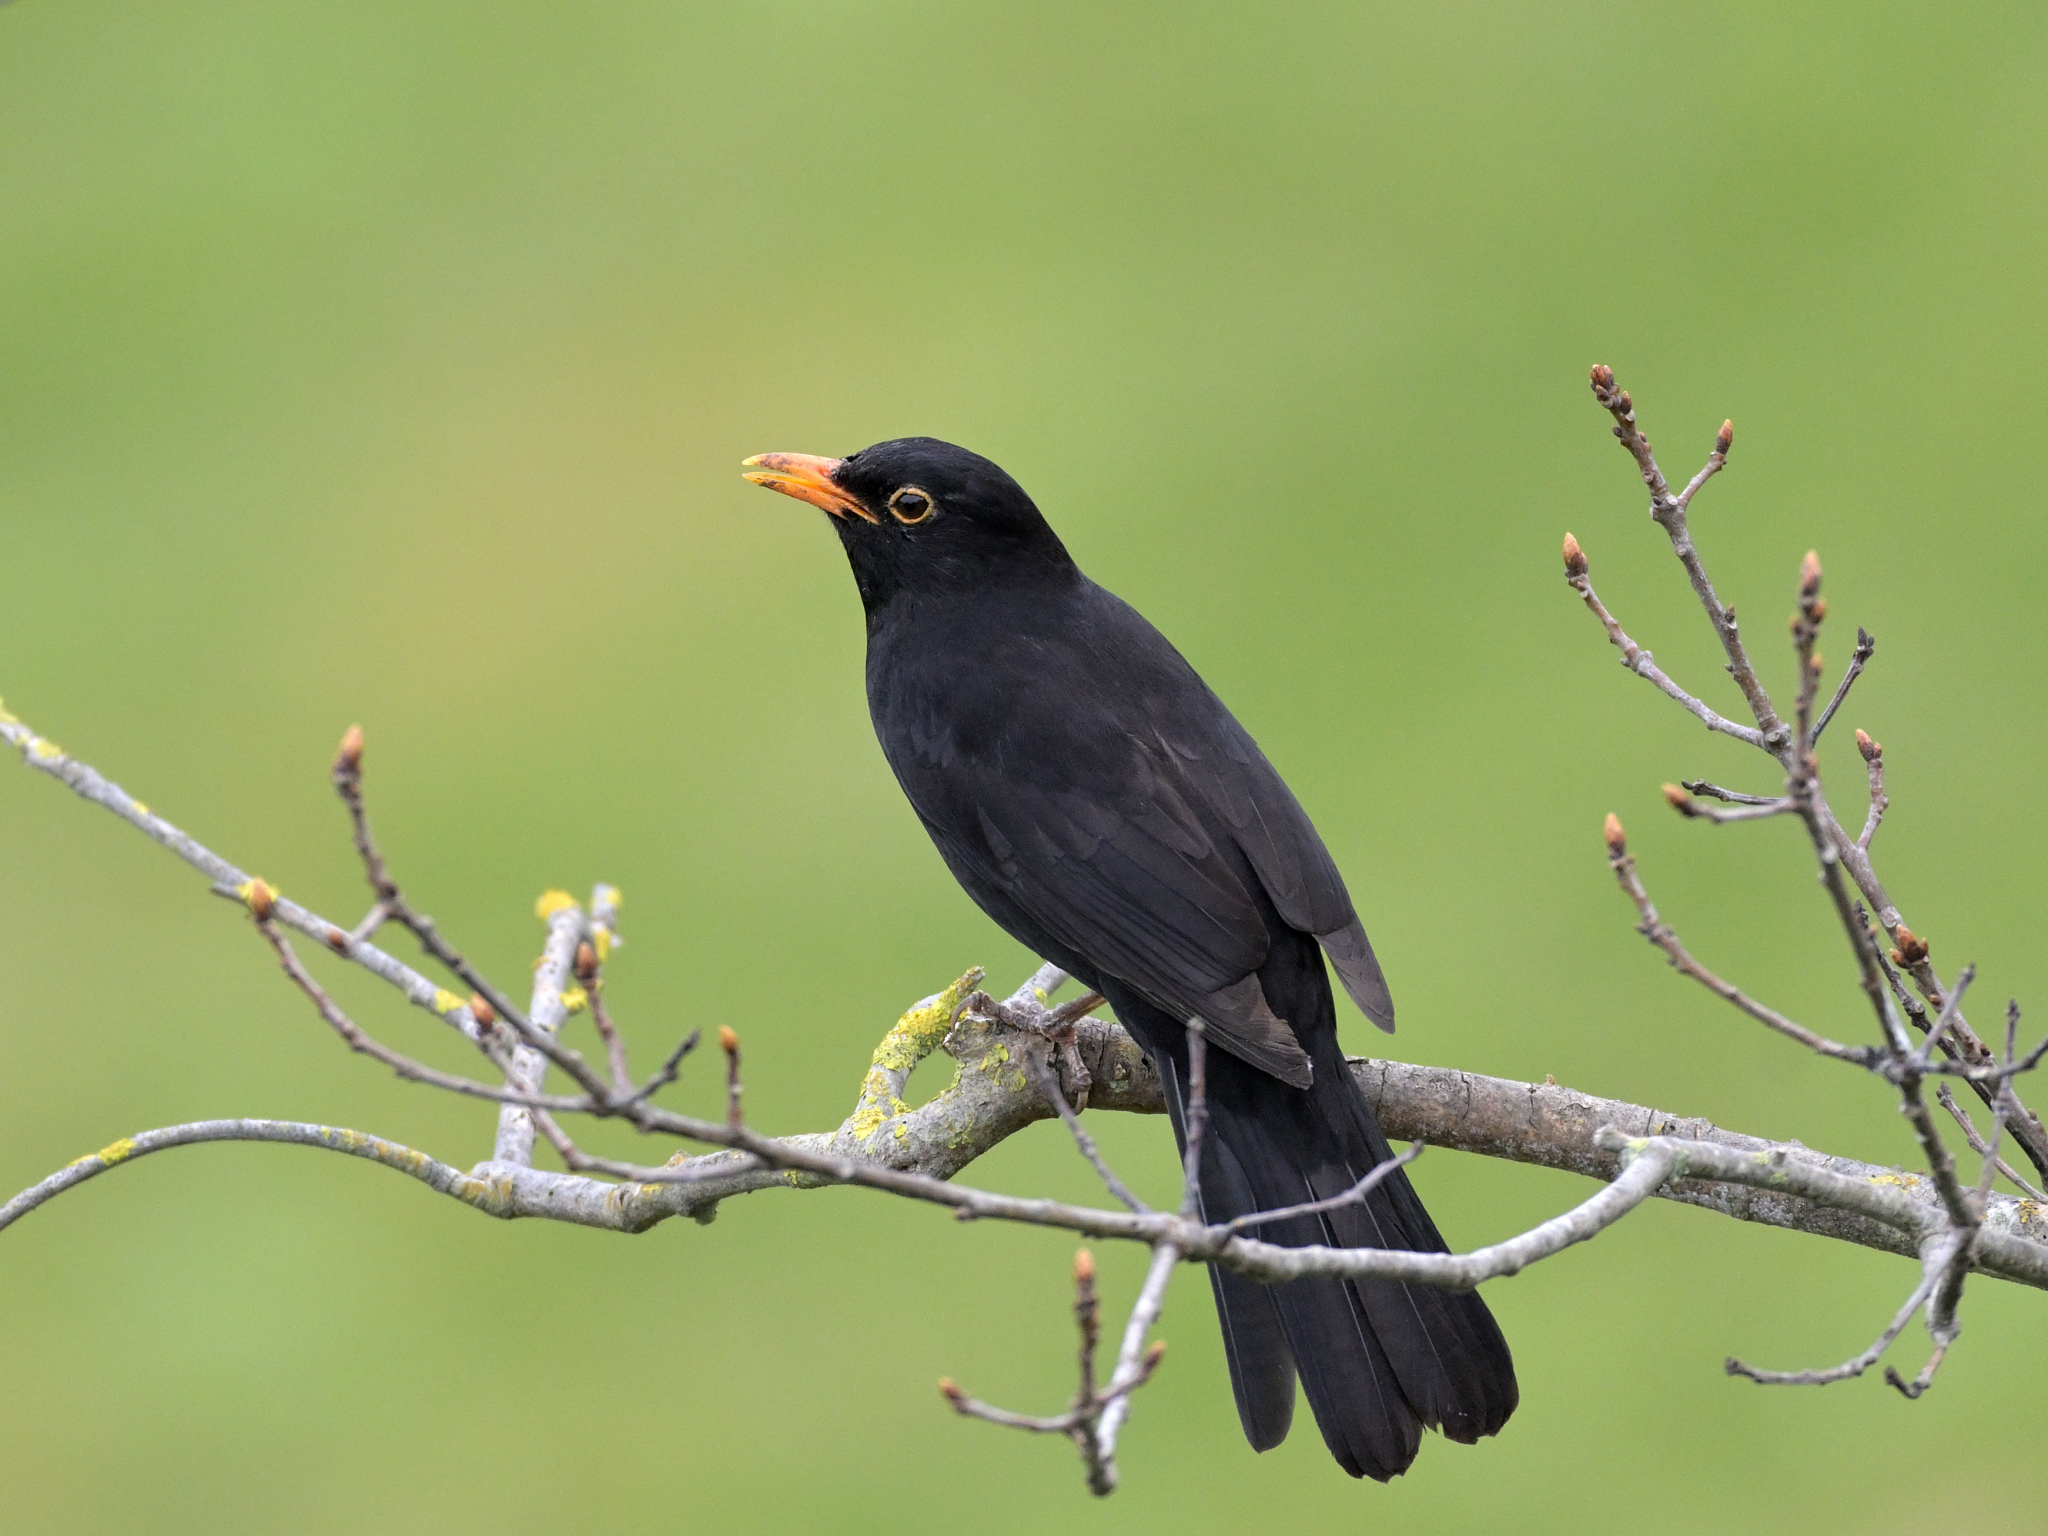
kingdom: Animalia
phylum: Chordata
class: Aves
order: Passeriformes
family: Turdidae
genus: Turdus
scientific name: Turdus merula
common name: Common blackbird
